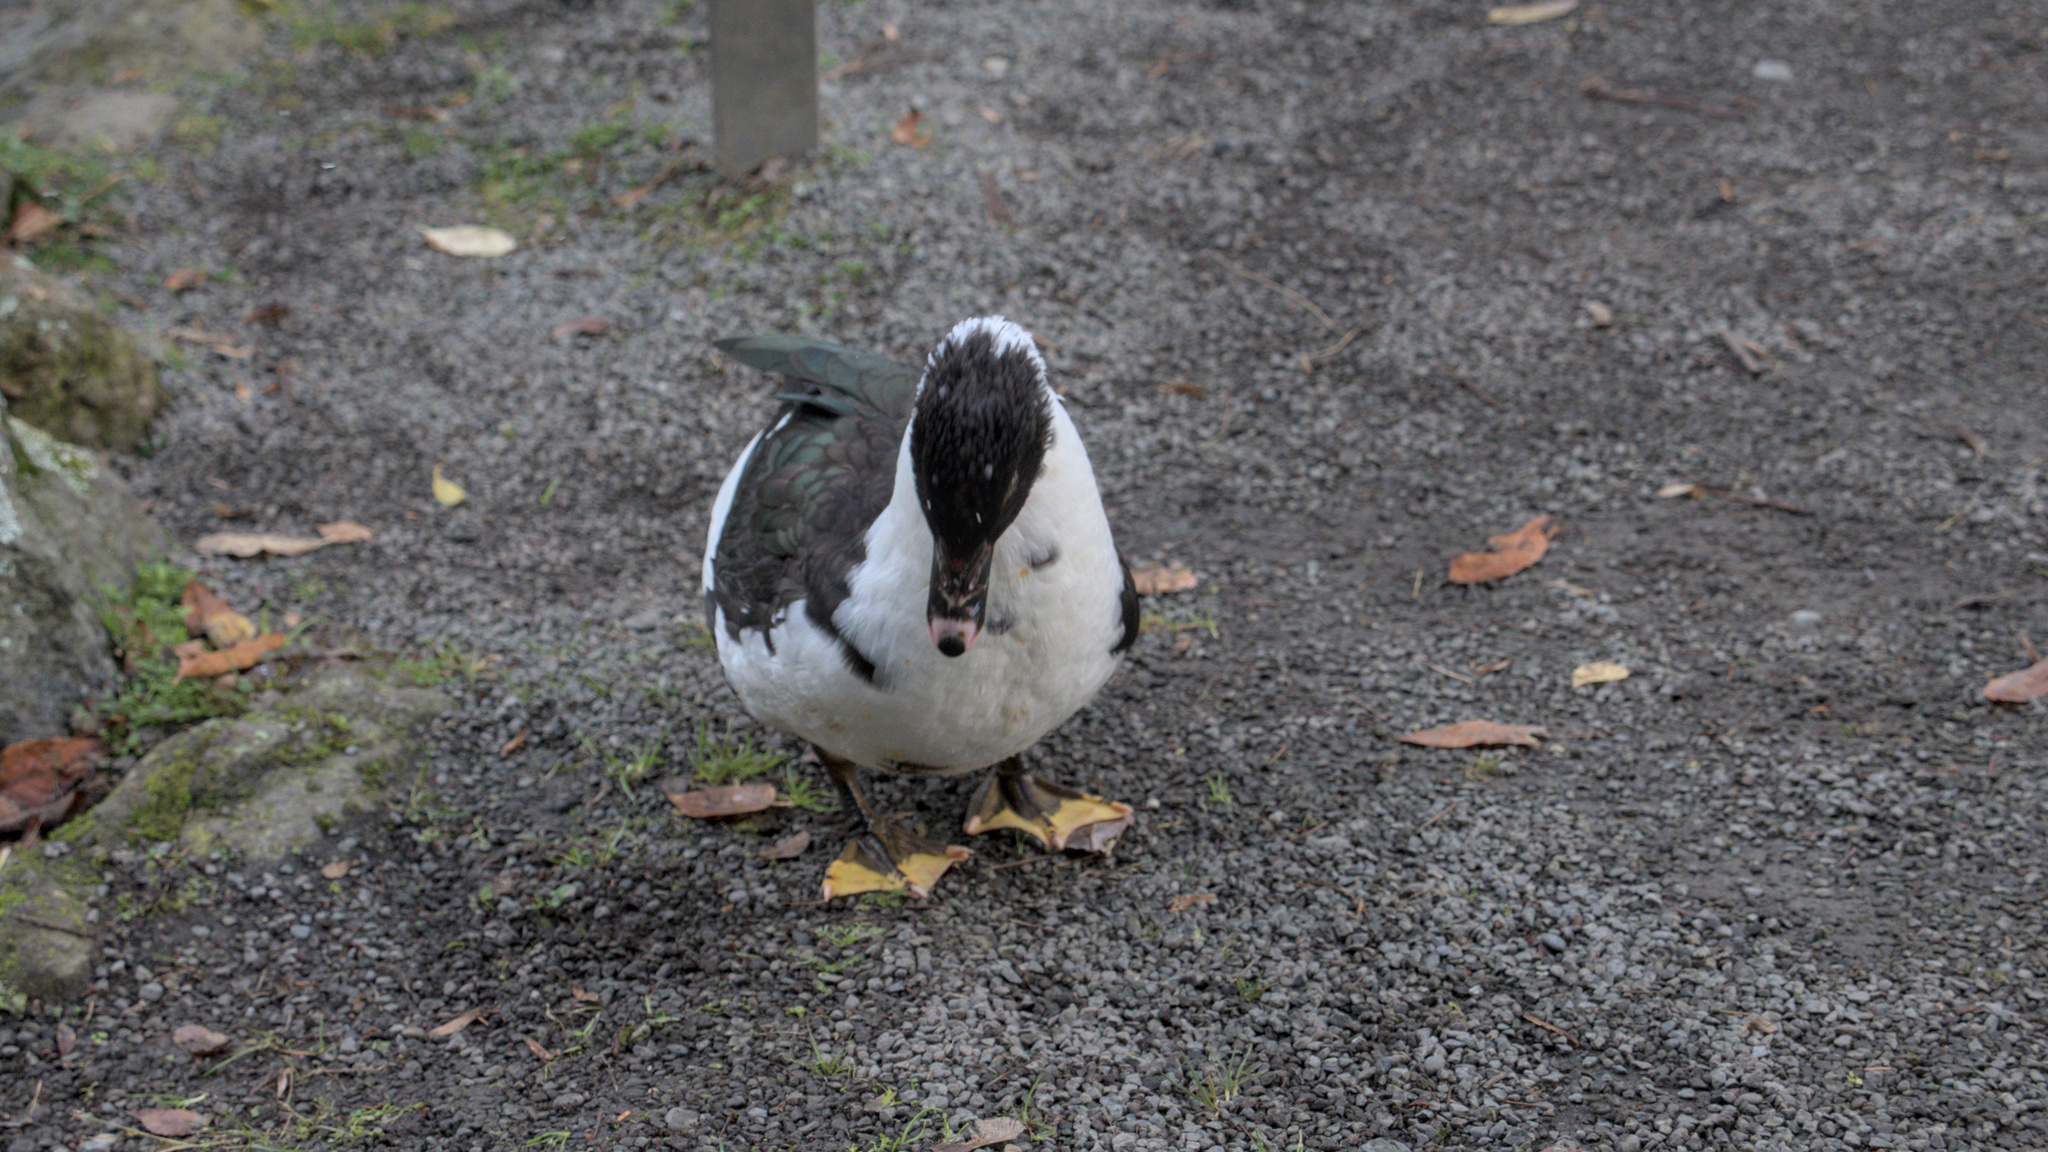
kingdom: Animalia
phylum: Chordata
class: Aves
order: Anseriformes
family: Anatidae
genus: Cairina
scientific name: Cairina moschata
